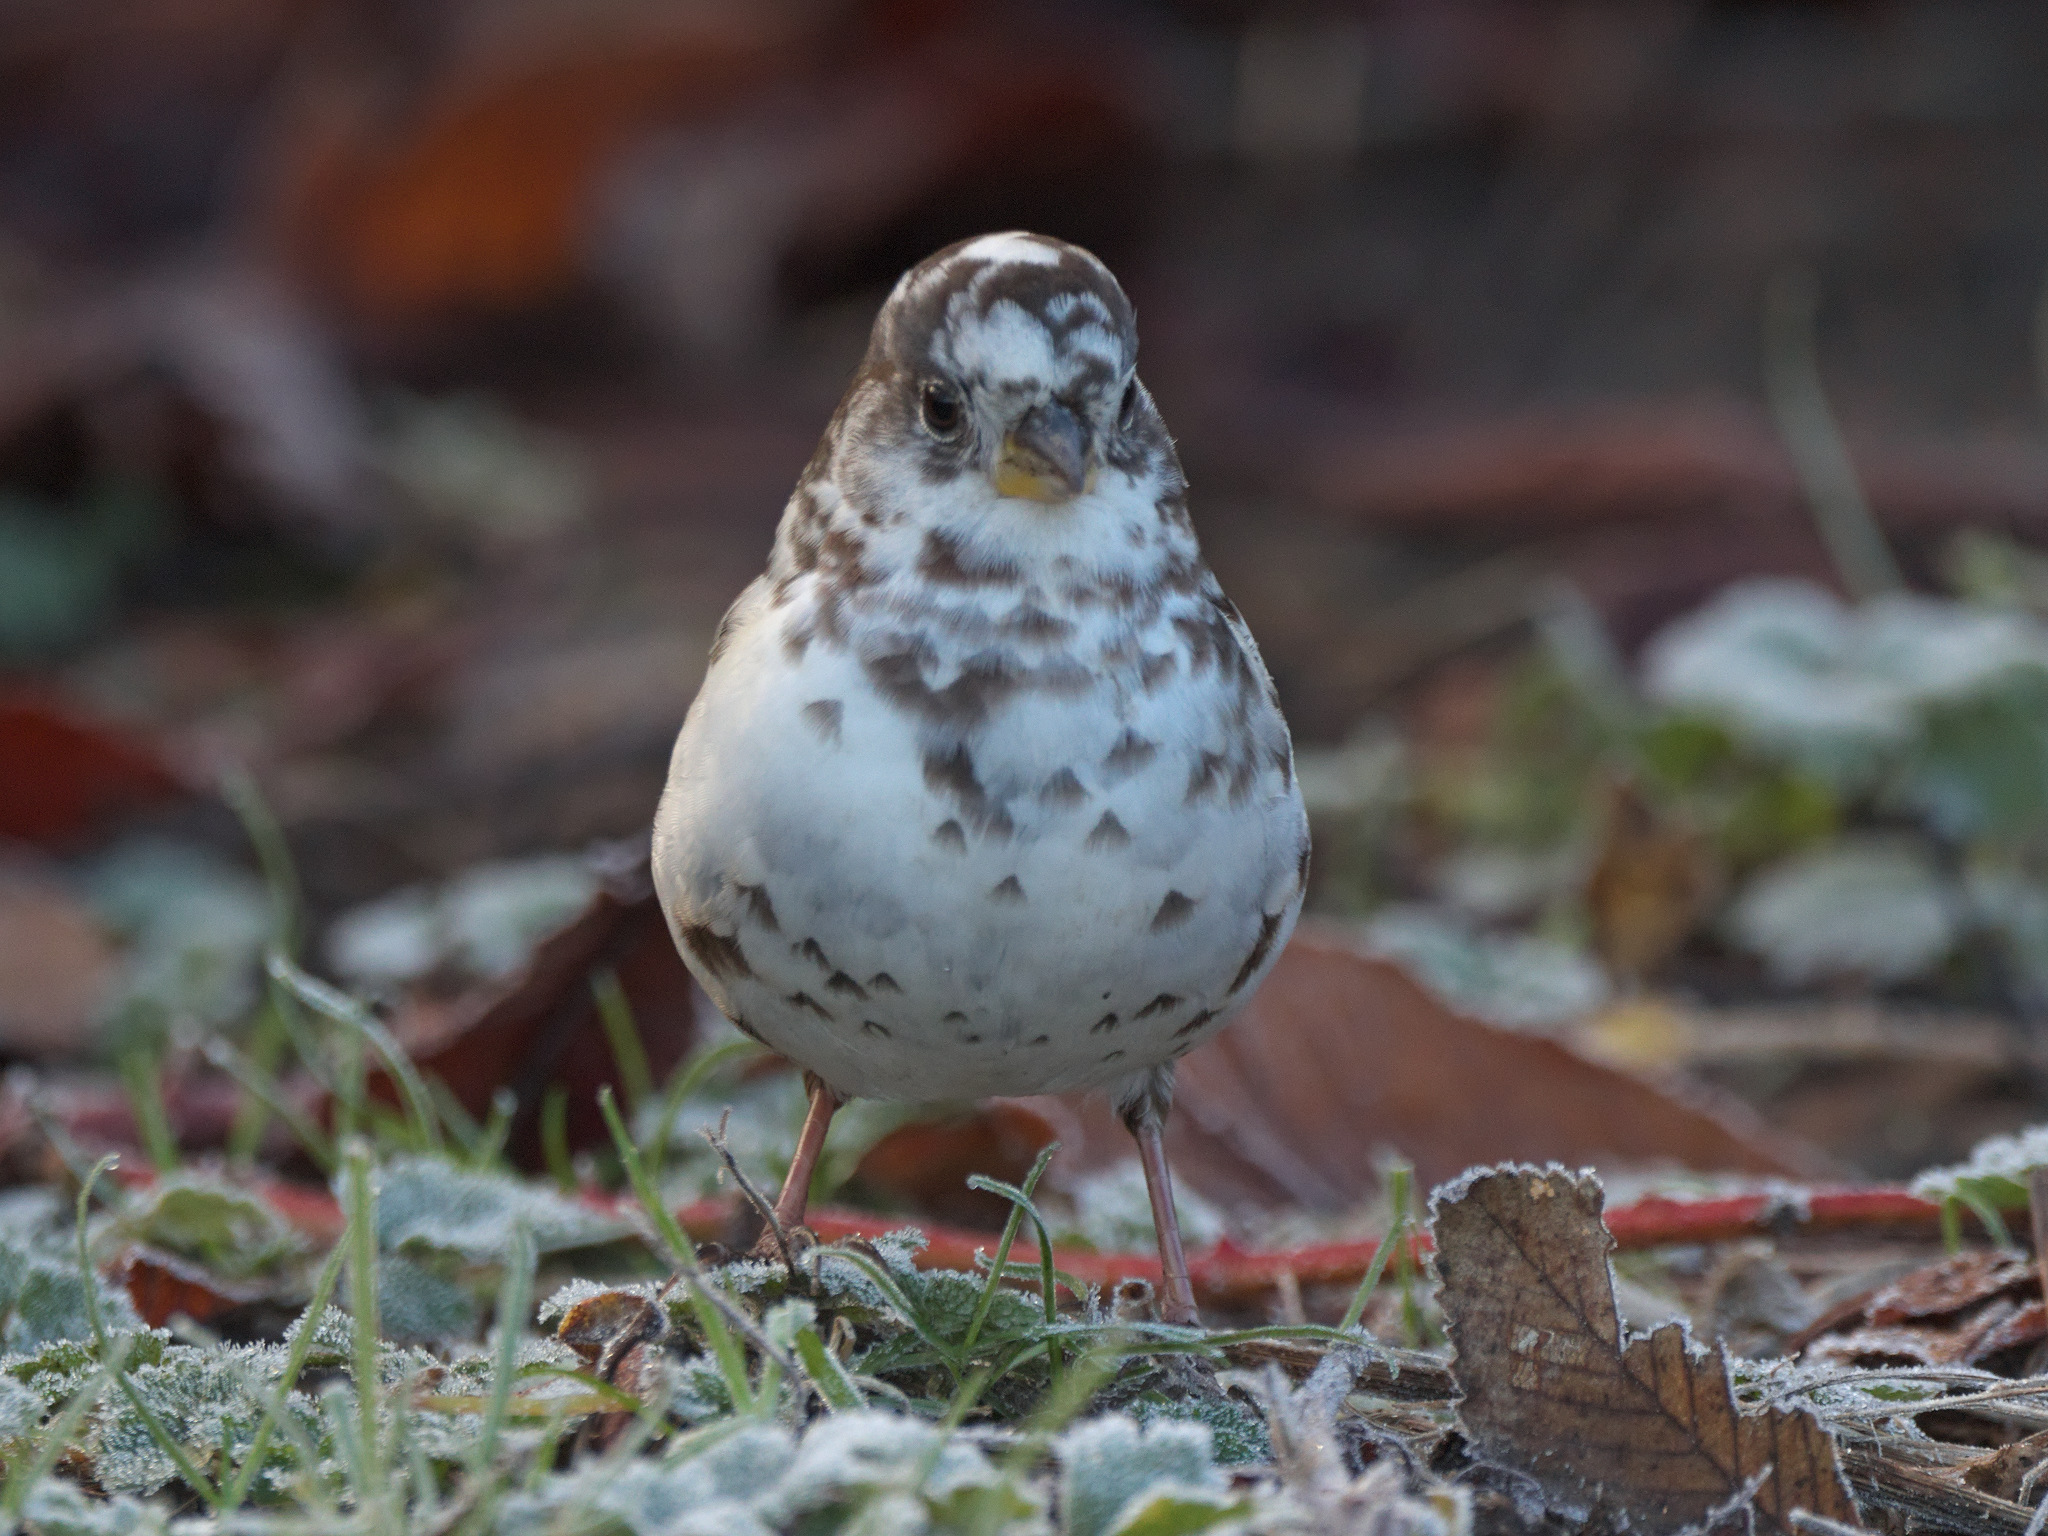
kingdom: Animalia
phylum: Chordata
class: Aves
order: Passeriformes
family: Passerellidae
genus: Passerella
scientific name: Passerella iliaca
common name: Fox sparrow
